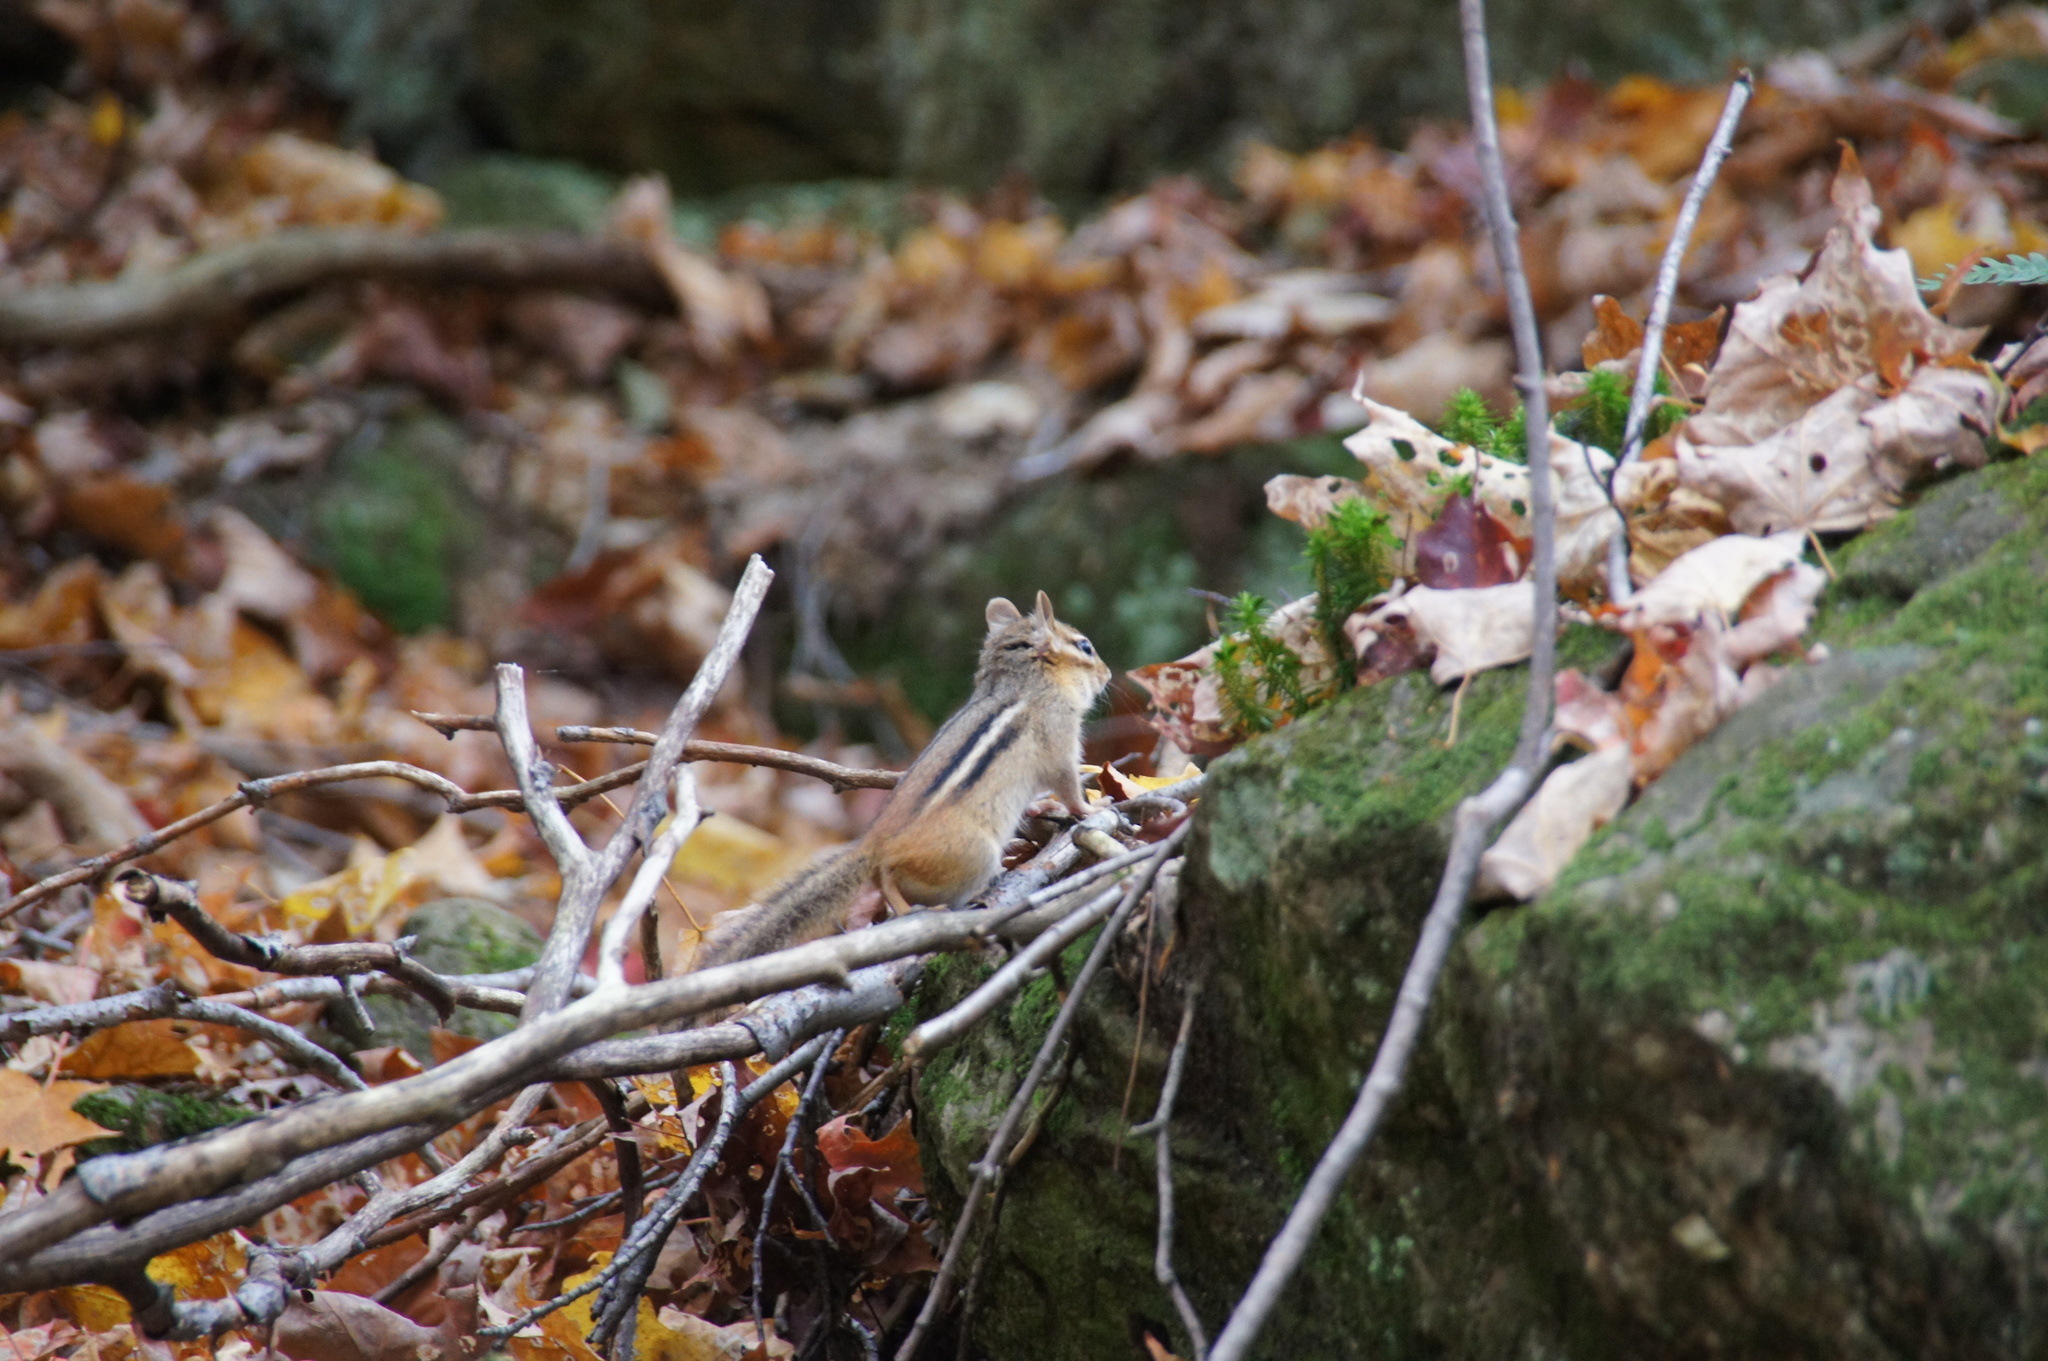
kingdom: Animalia
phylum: Chordata
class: Mammalia
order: Rodentia
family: Sciuridae
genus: Tamias
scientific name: Tamias striatus
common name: Eastern chipmunk
